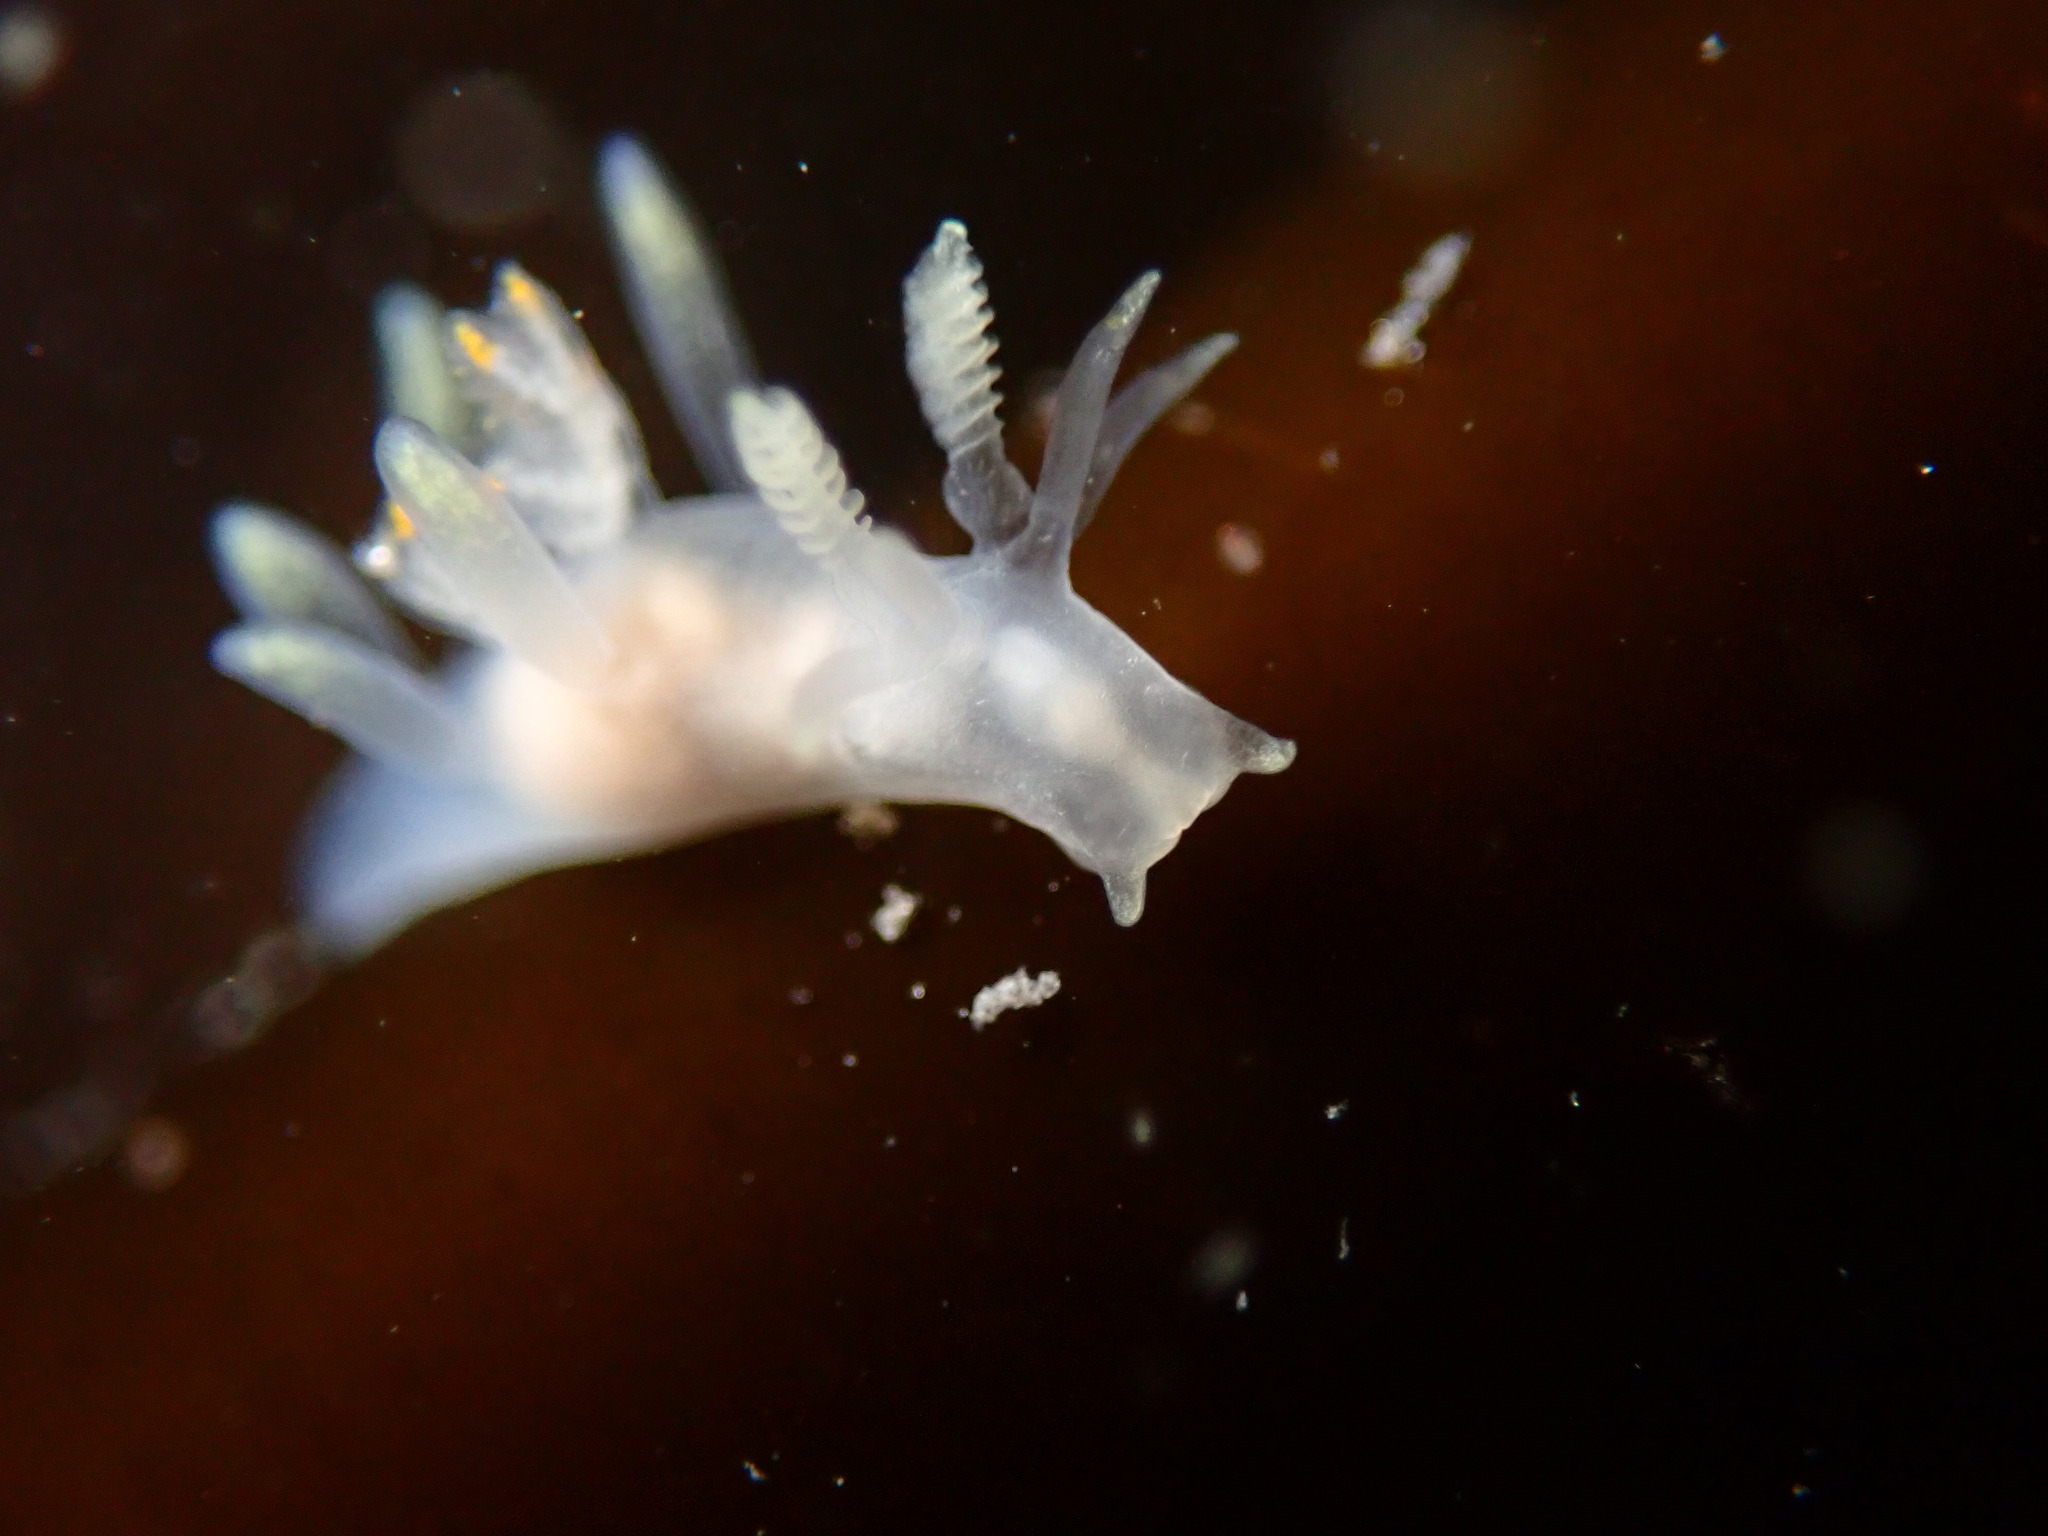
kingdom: Animalia
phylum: Mollusca
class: Gastropoda
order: Nudibranchia
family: Goniodorididae
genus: Ancula
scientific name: Ancula gibbosa
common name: Atlantic ancula
